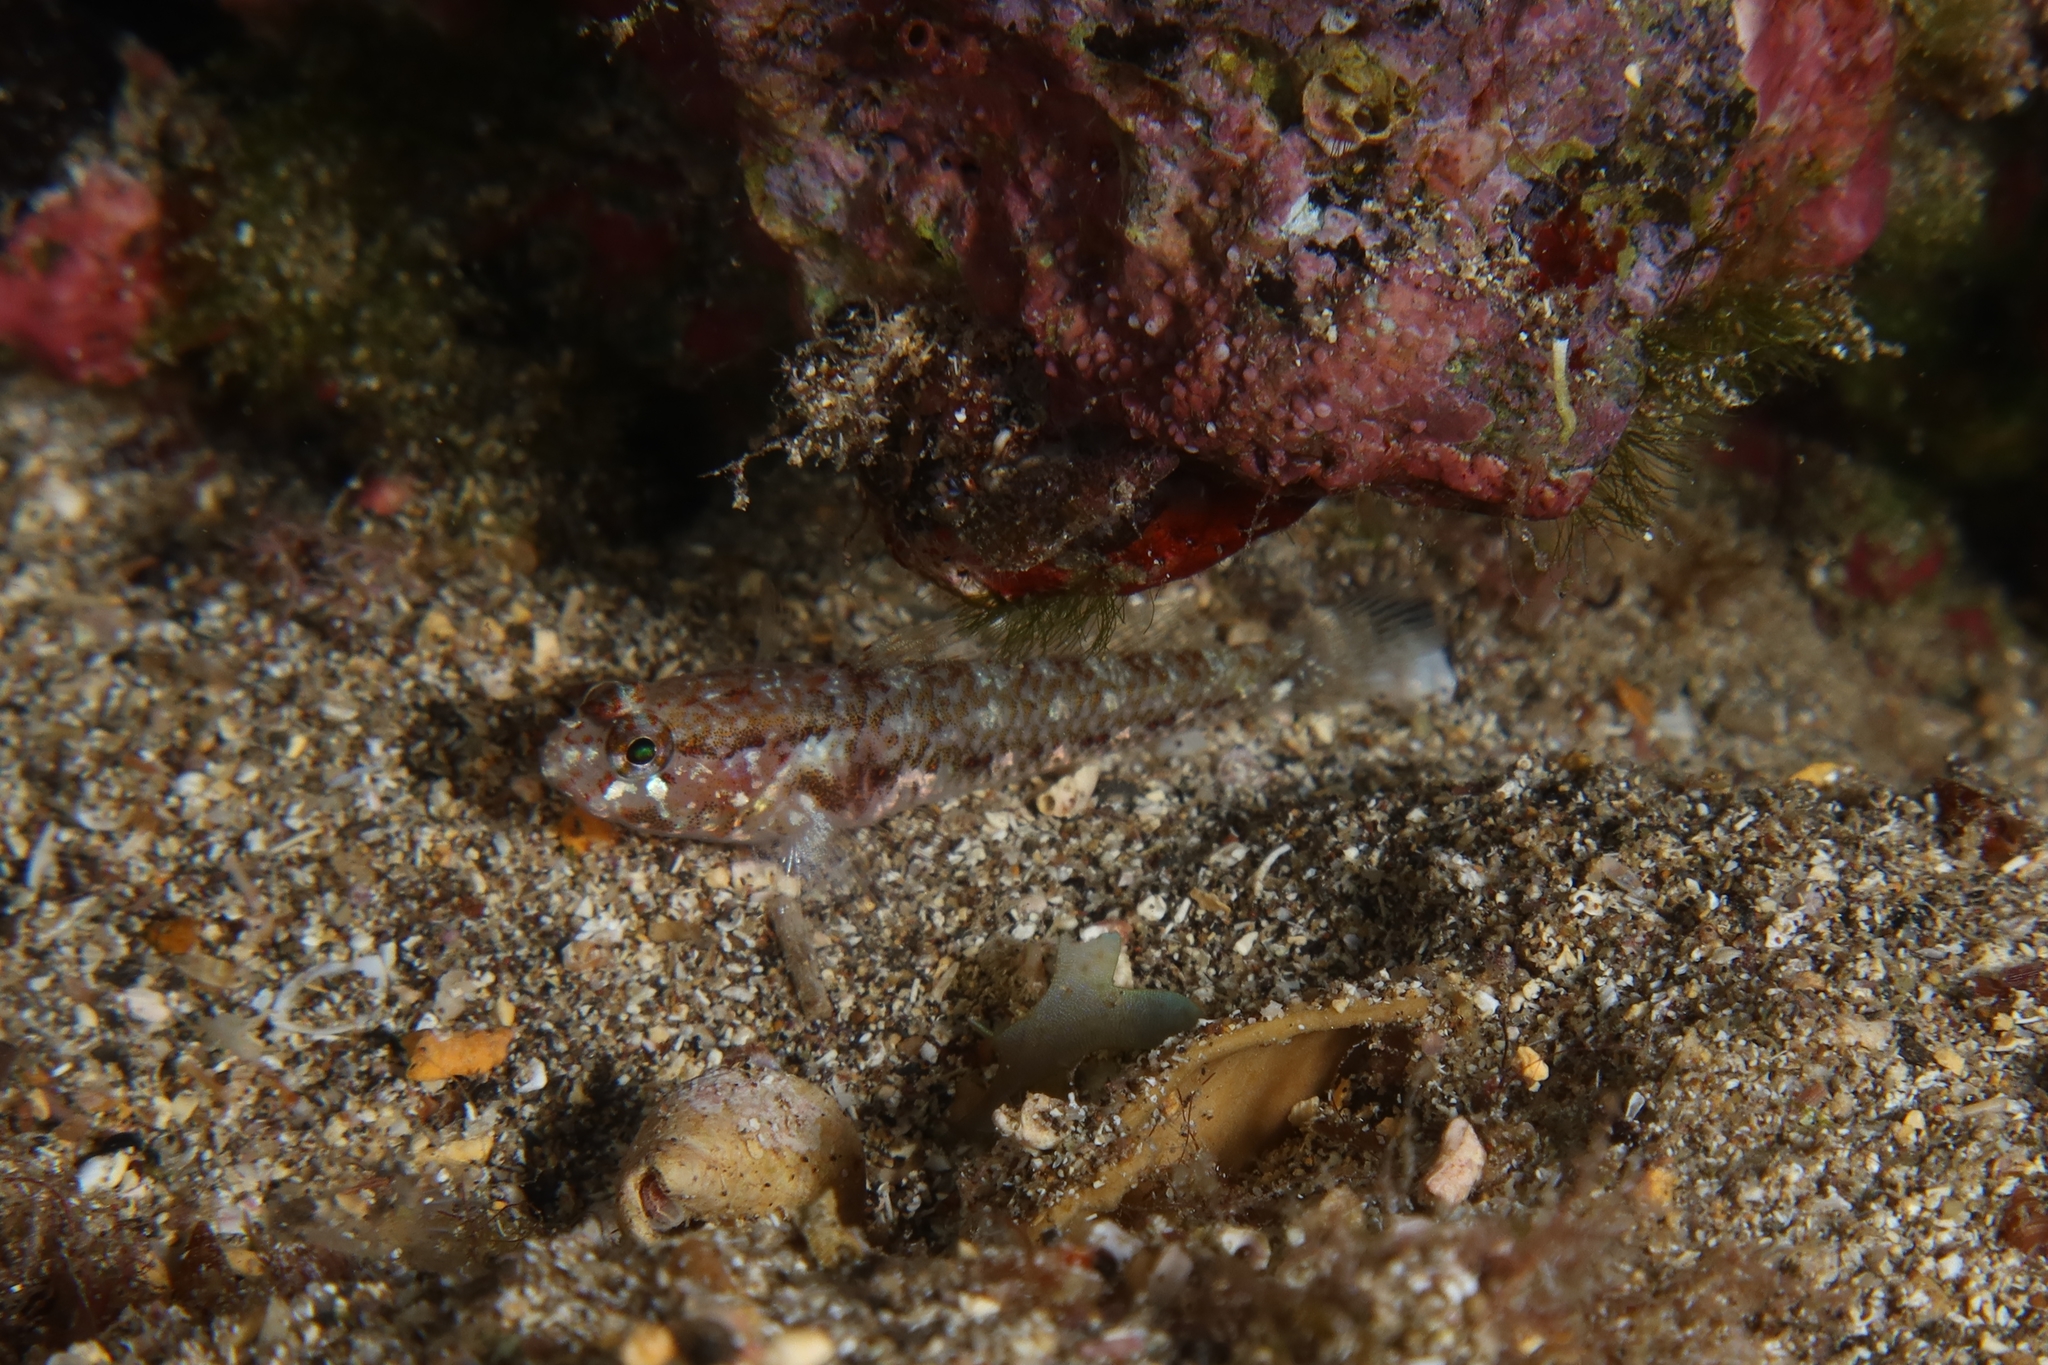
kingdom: Animalia
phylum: Chordata
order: Perciformes
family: Gobiidae
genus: Vanneaugobius
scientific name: Vanneaugobius canariensis
